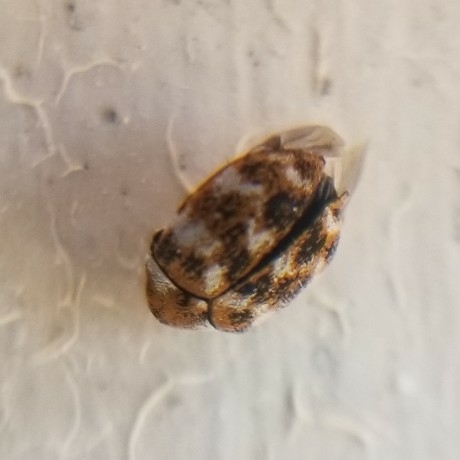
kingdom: Animalia
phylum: Arthropoda
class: Insecta
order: Coleoptera
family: Dermestidae
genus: Anthrenus
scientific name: Anthrenus verbasci
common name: Varied carpet beetle
